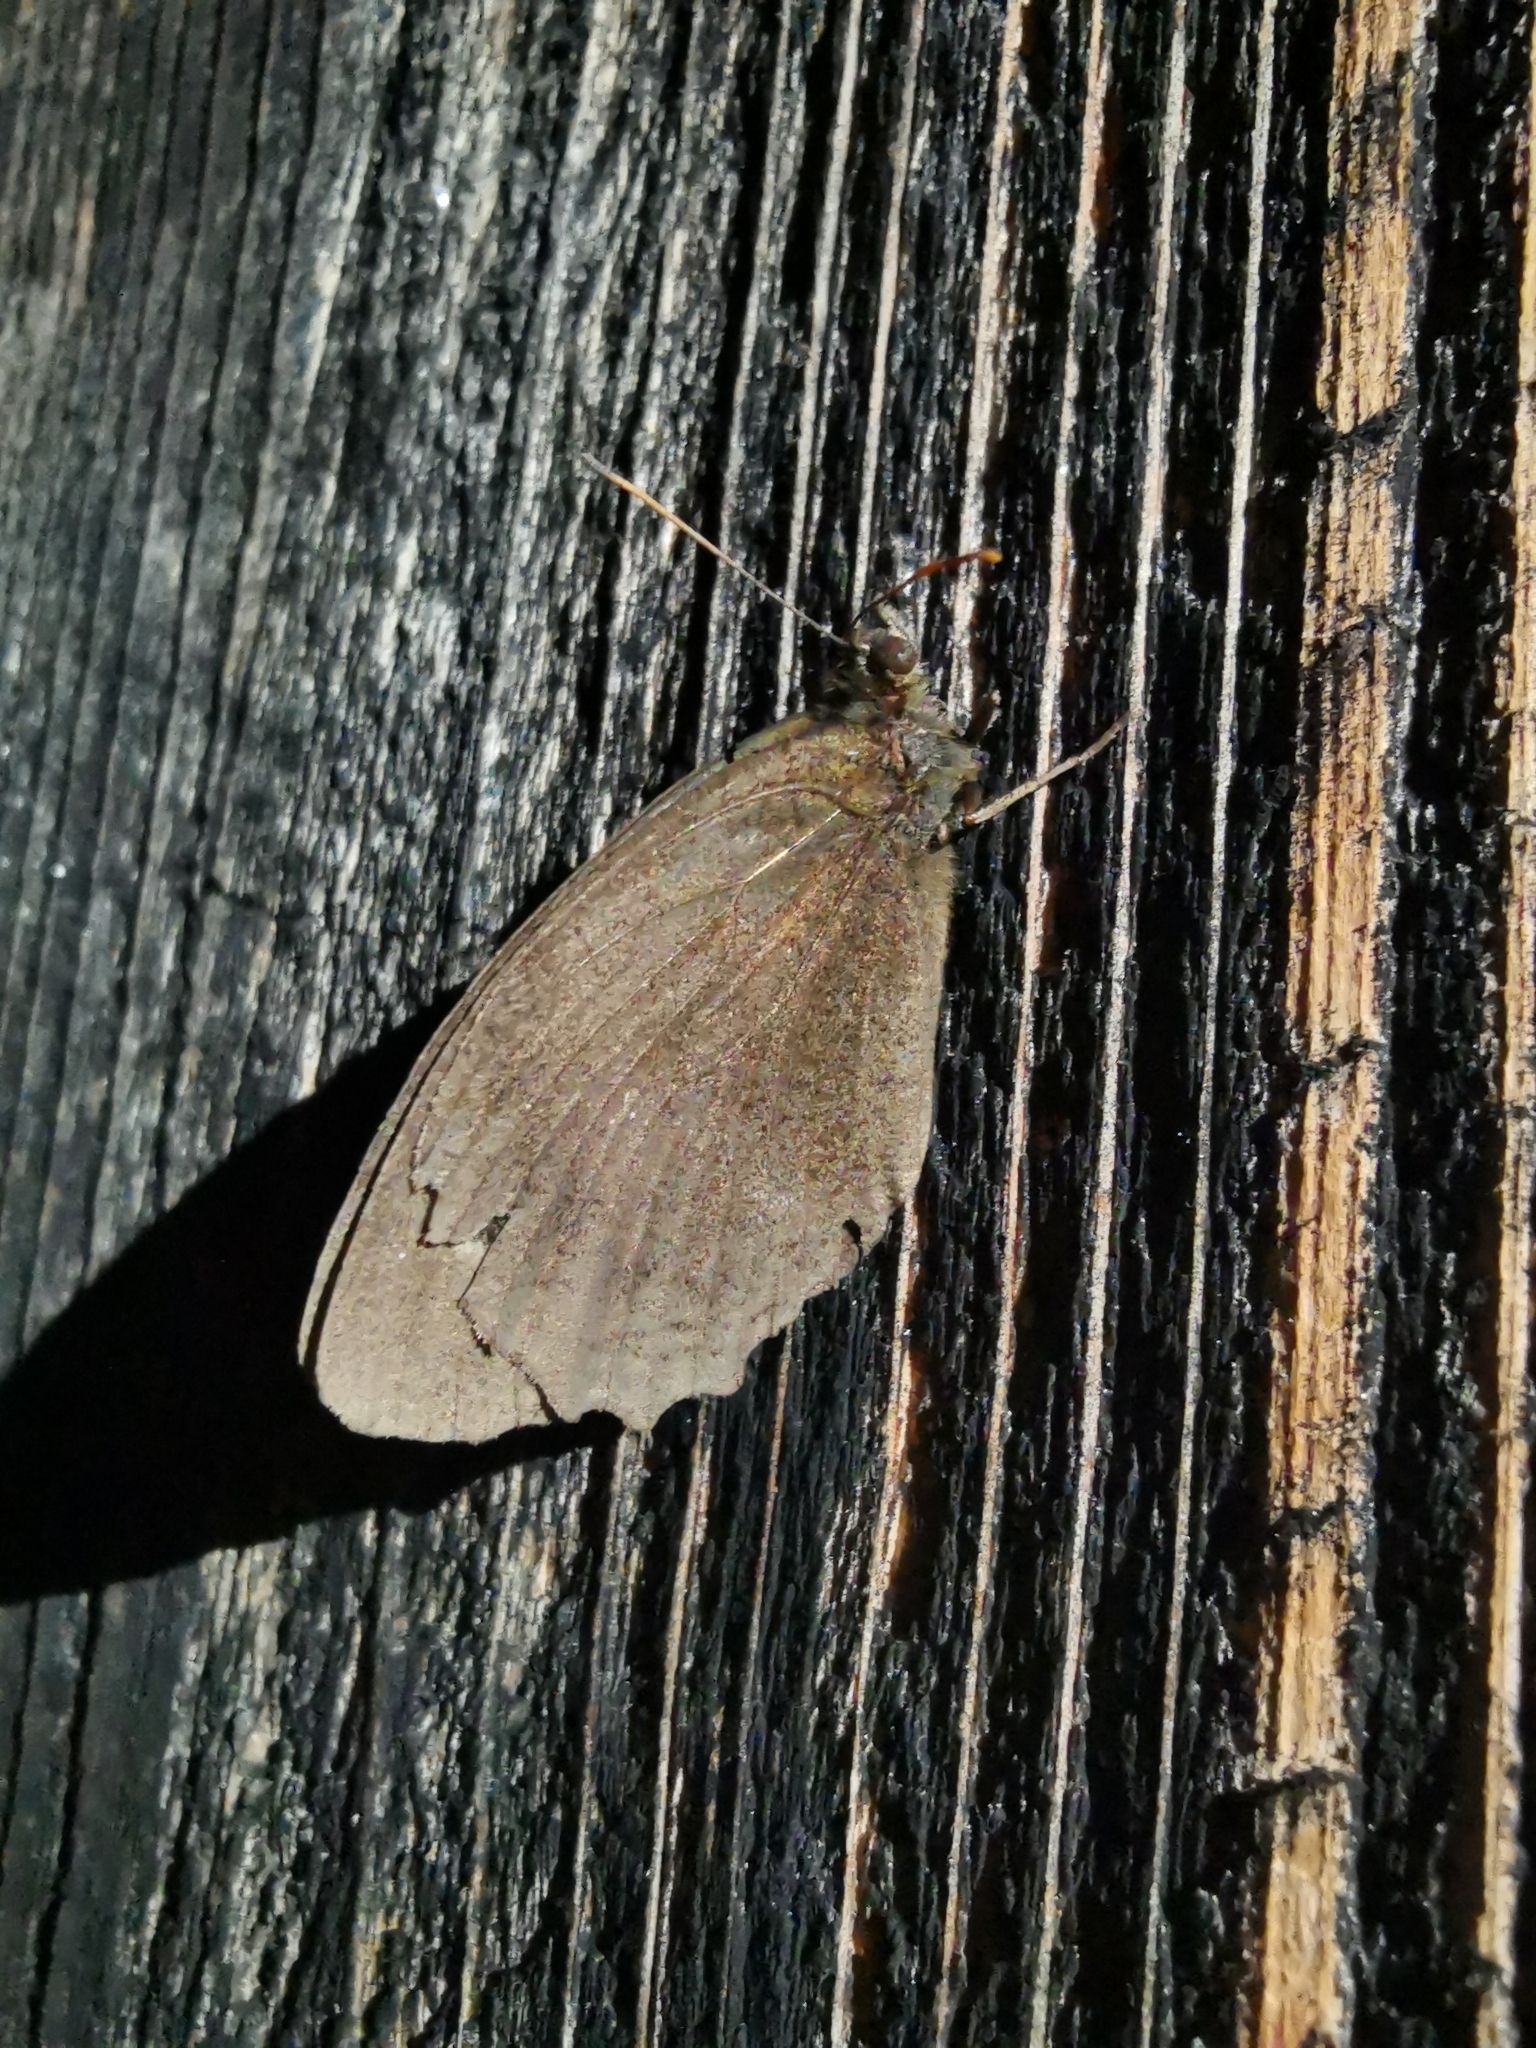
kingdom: Animalia
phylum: Arthropoda
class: Insecta
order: Lepidoptera
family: Nymphalidae
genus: Minois
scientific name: Minois dryas
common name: Dryad
